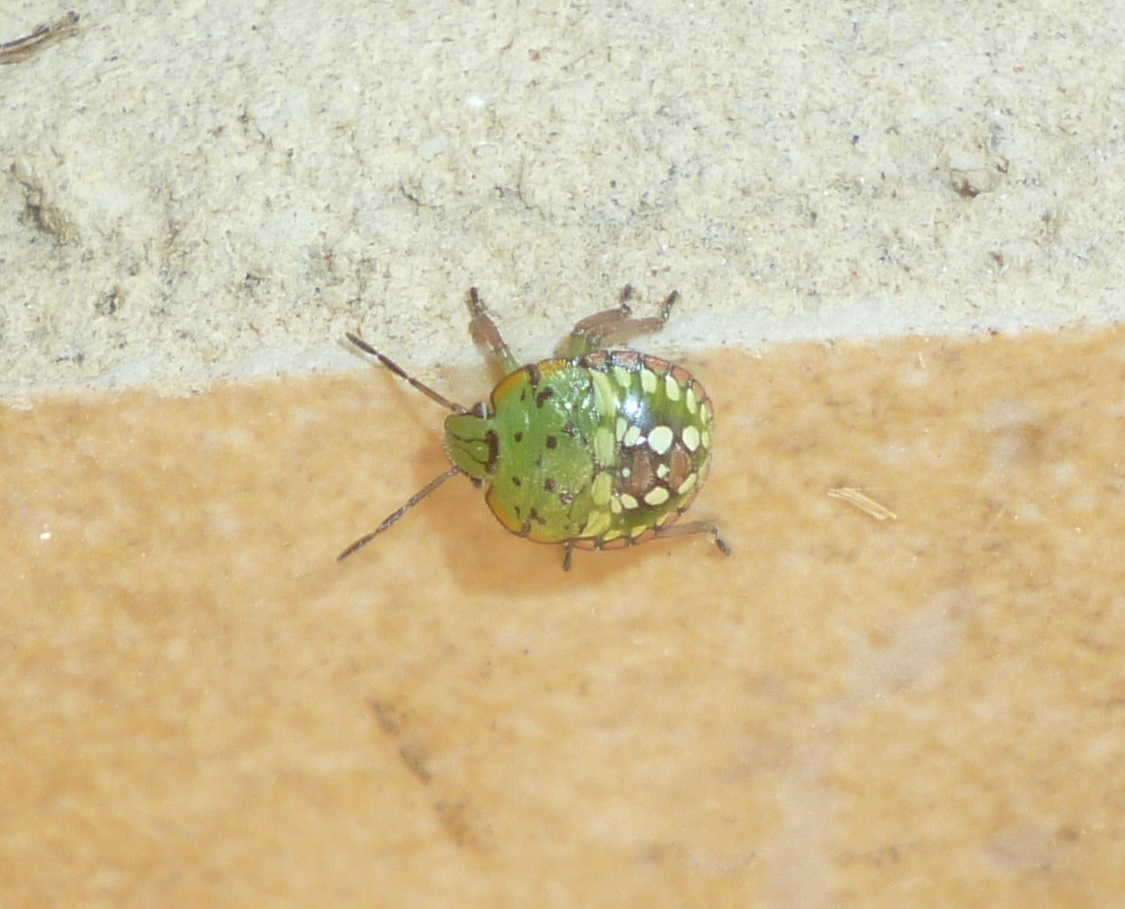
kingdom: Animalia
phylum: Arthropoda
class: Insecta
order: Hemiptera
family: Pentatomidae
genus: Nezara
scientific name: Nezara viridula
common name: Southern green stink bug
